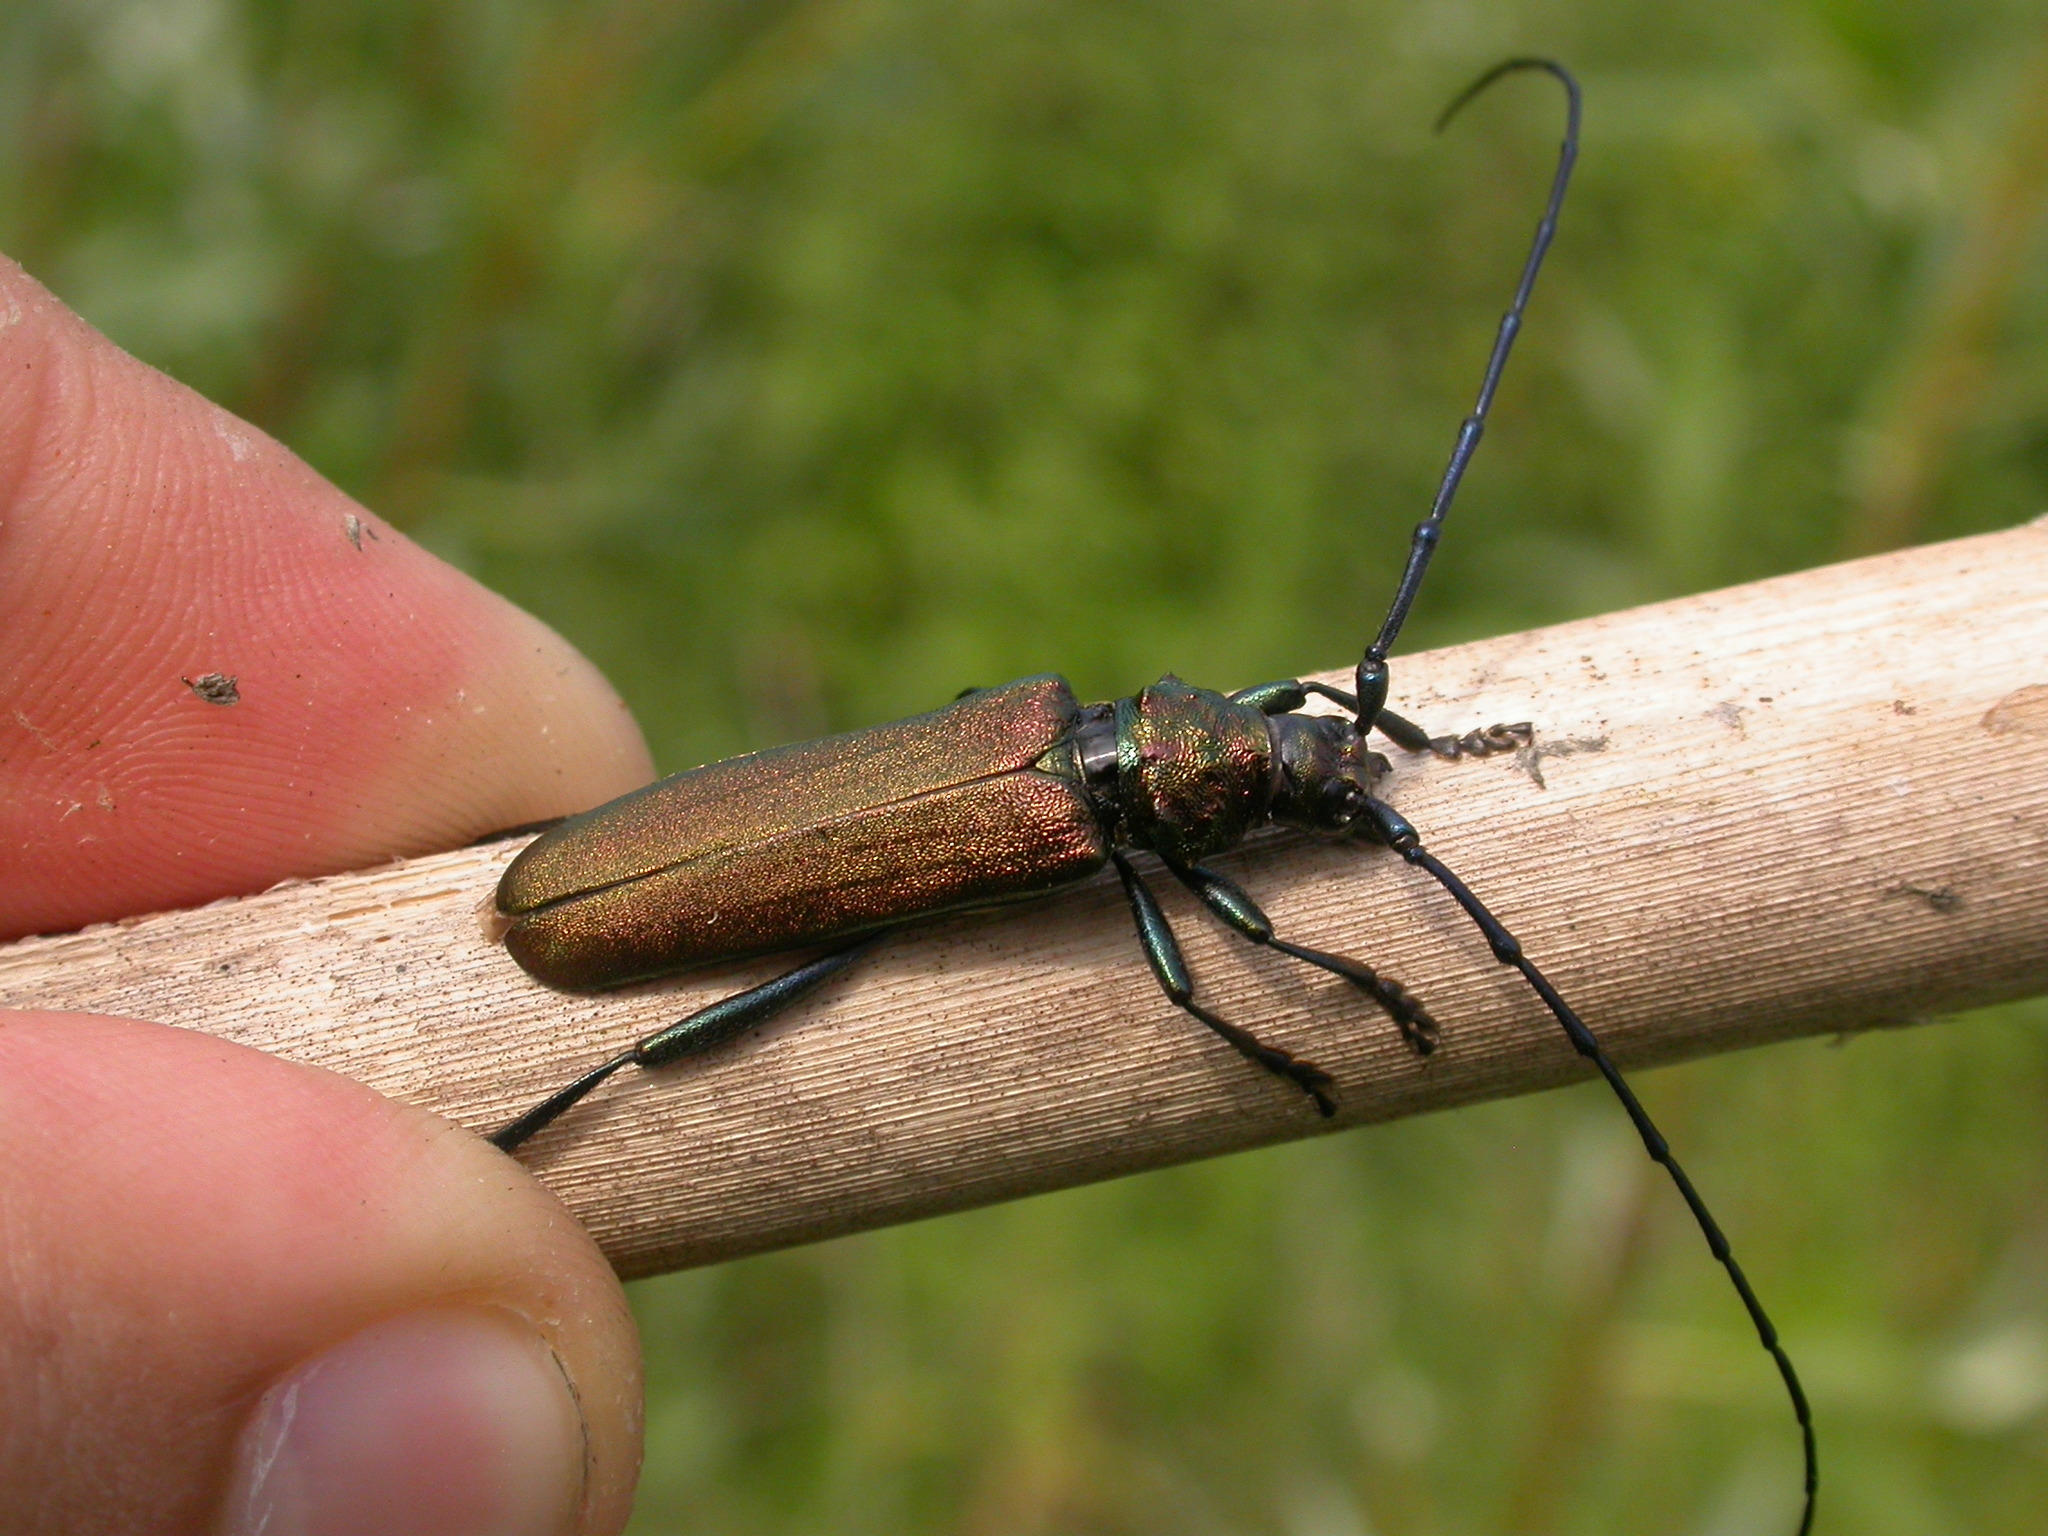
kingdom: Animalia
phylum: Arthropoda
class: Insecta
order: Coleoptera
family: Cerambycidae
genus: Aromia
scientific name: Aromia moschata
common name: Musk beetle
